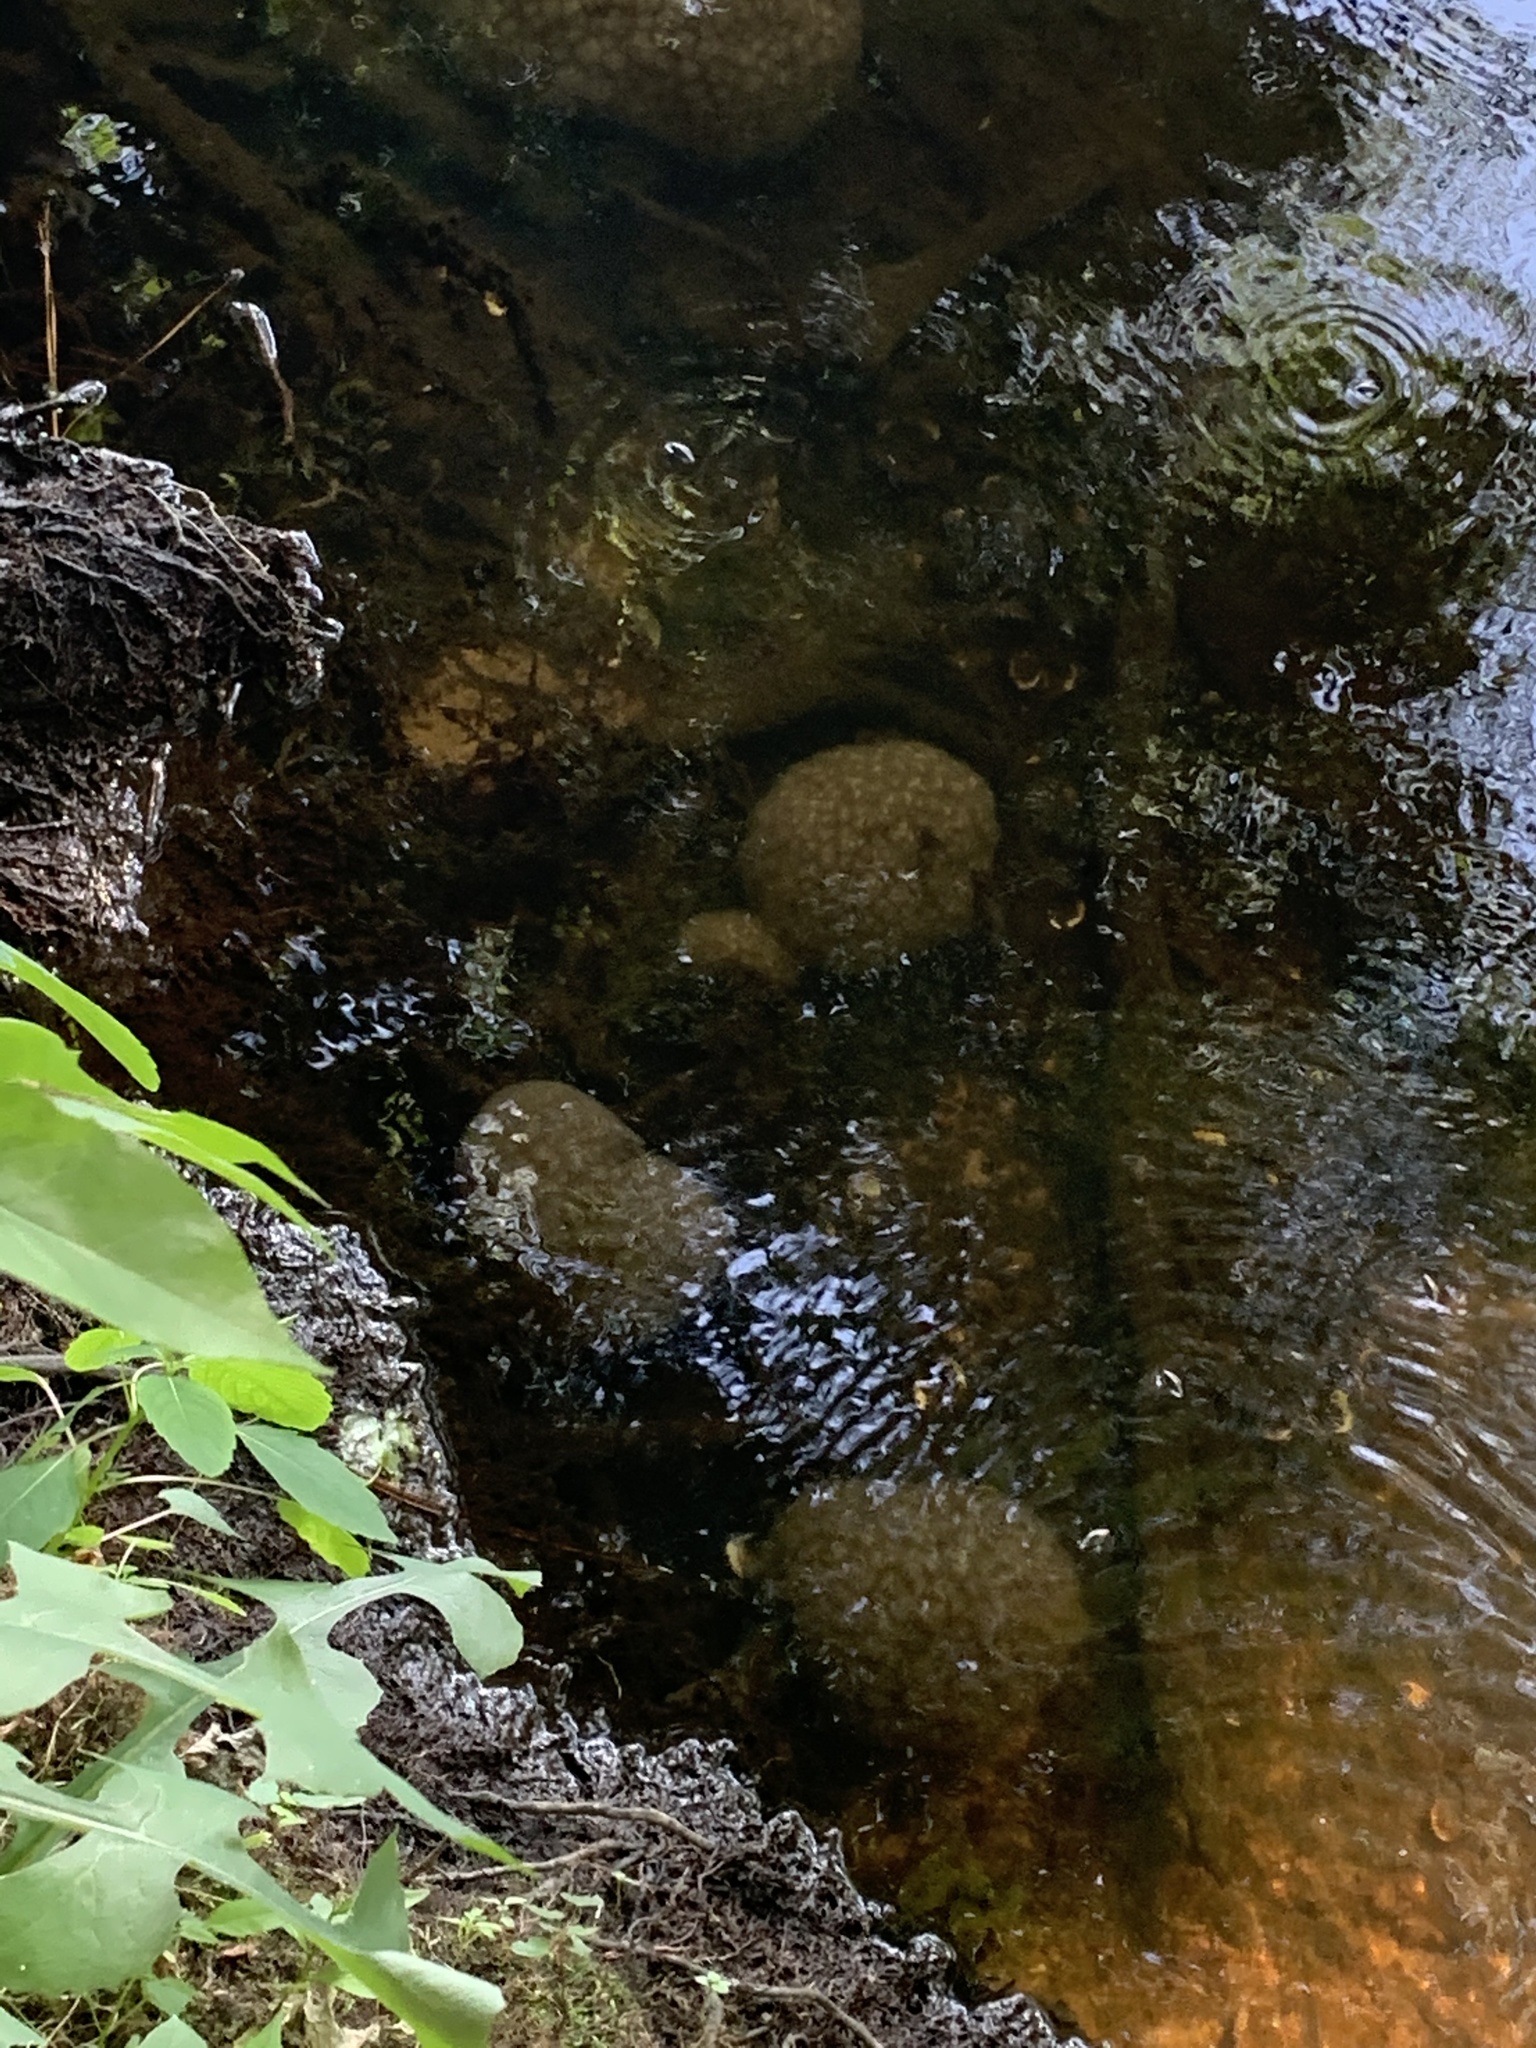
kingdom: Animalia
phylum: Bryozoa
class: Phylactolaemata
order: Plumatellida
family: Pectinatellidae
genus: Pectinatella
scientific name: Pectinatella magnifica
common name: Magnificent bryozoan
